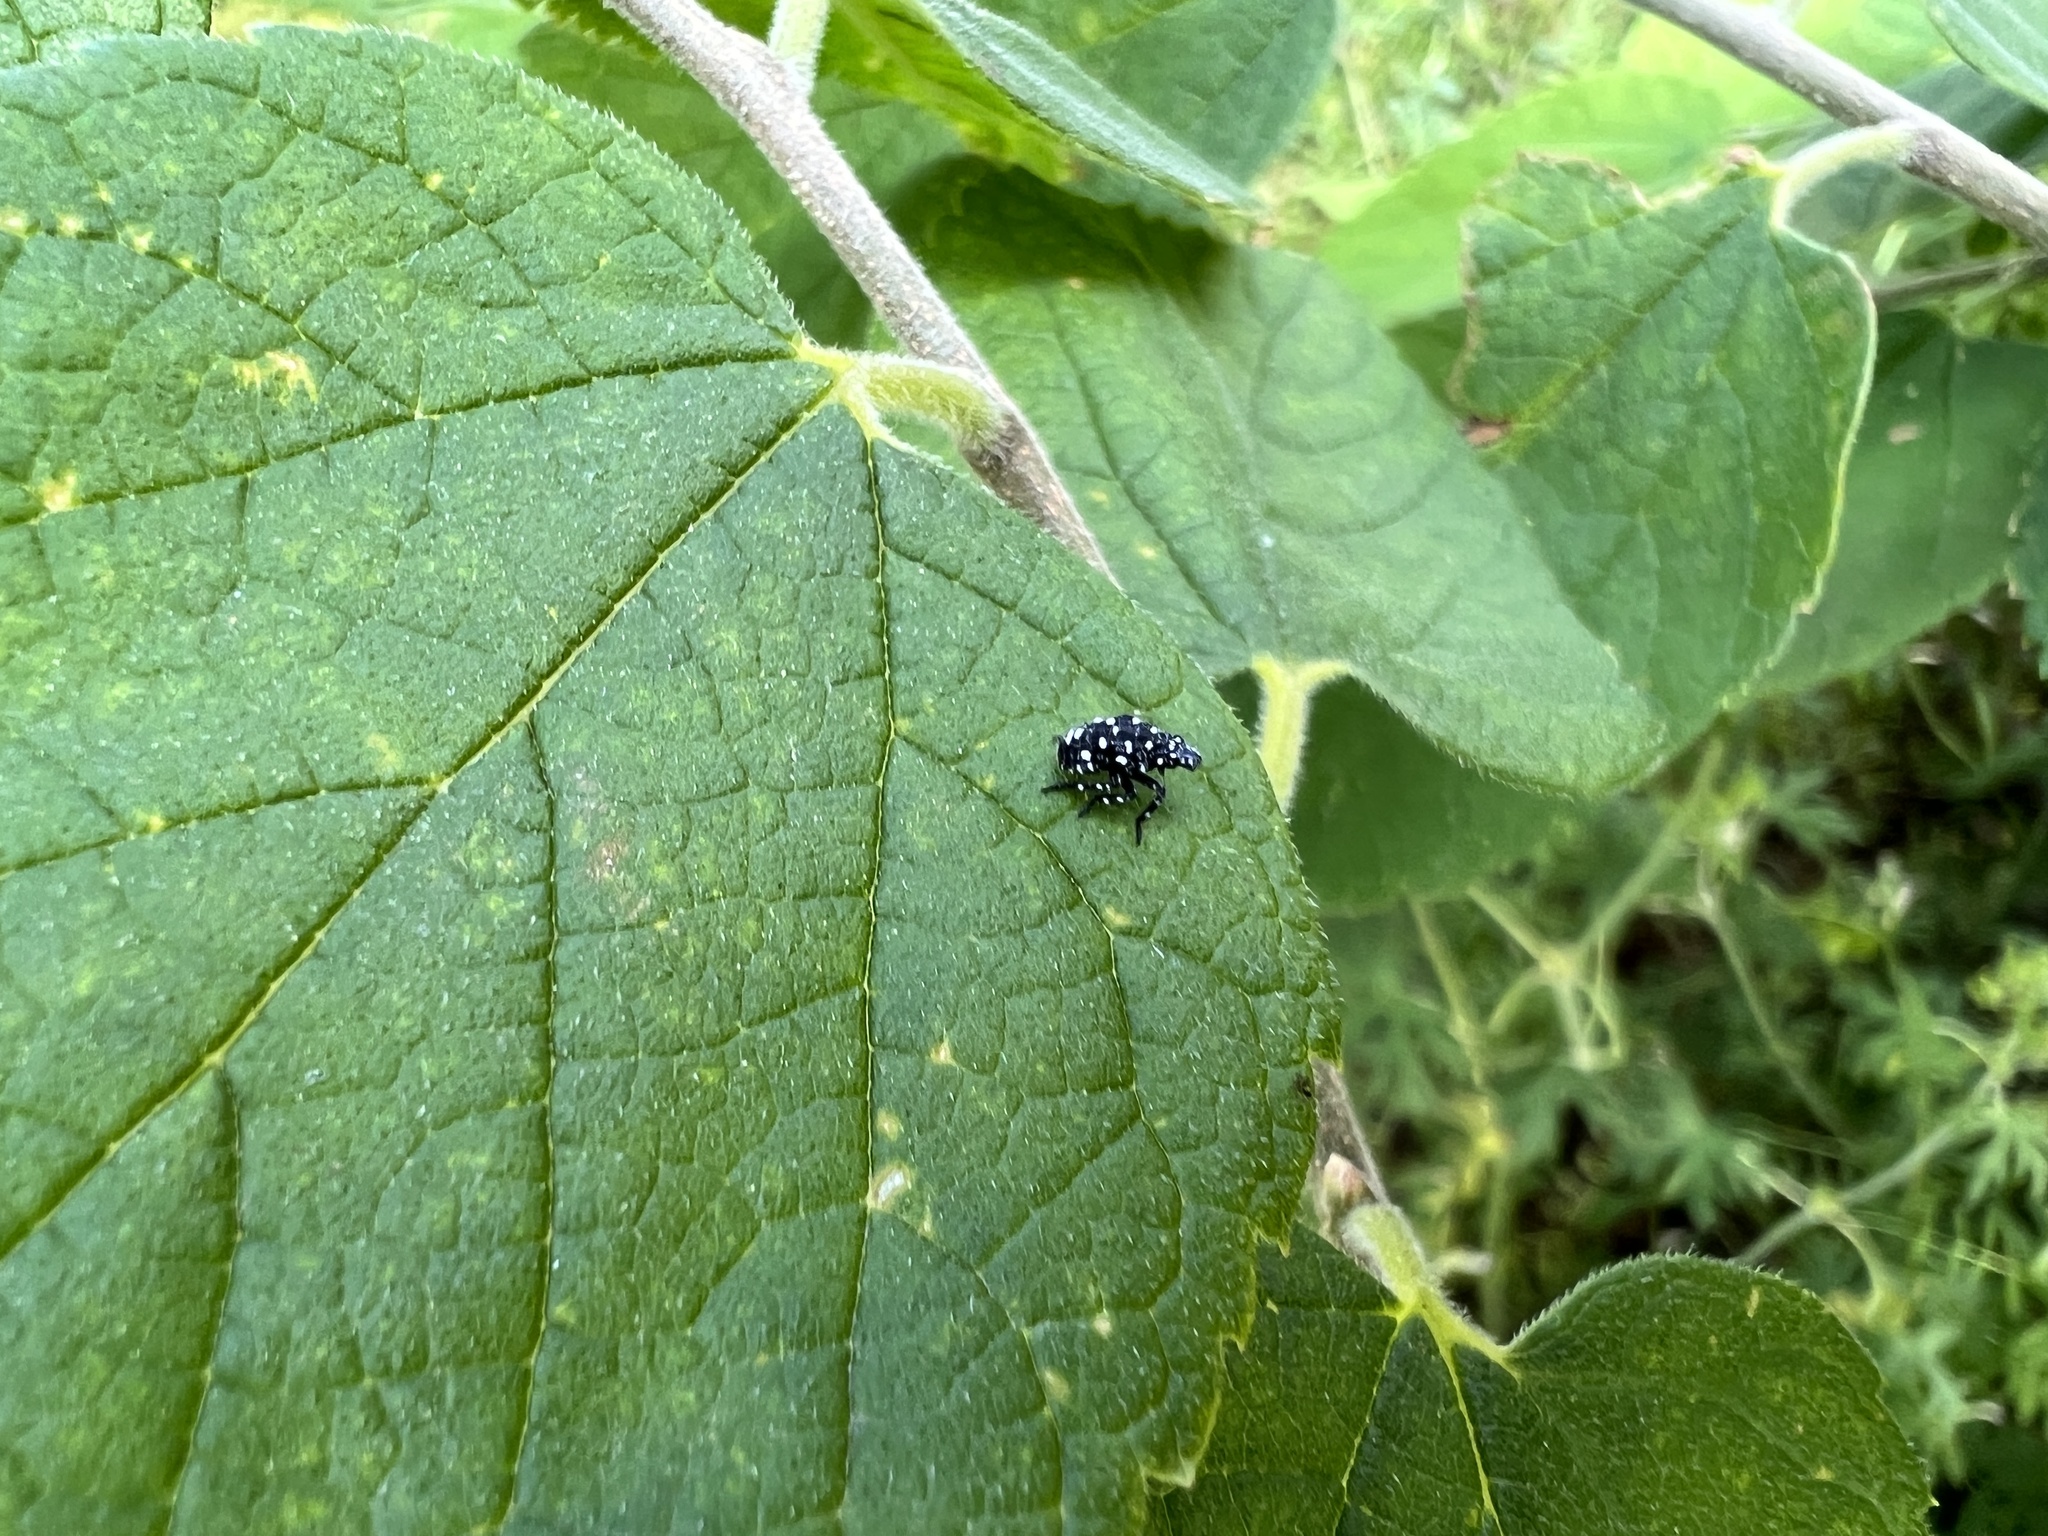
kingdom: Animalia
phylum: Arthropoda
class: Insecta
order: Hemiptera
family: Fulgoridae
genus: Lycorma
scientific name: Lycorma delicatula
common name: Spotted lanternfly
